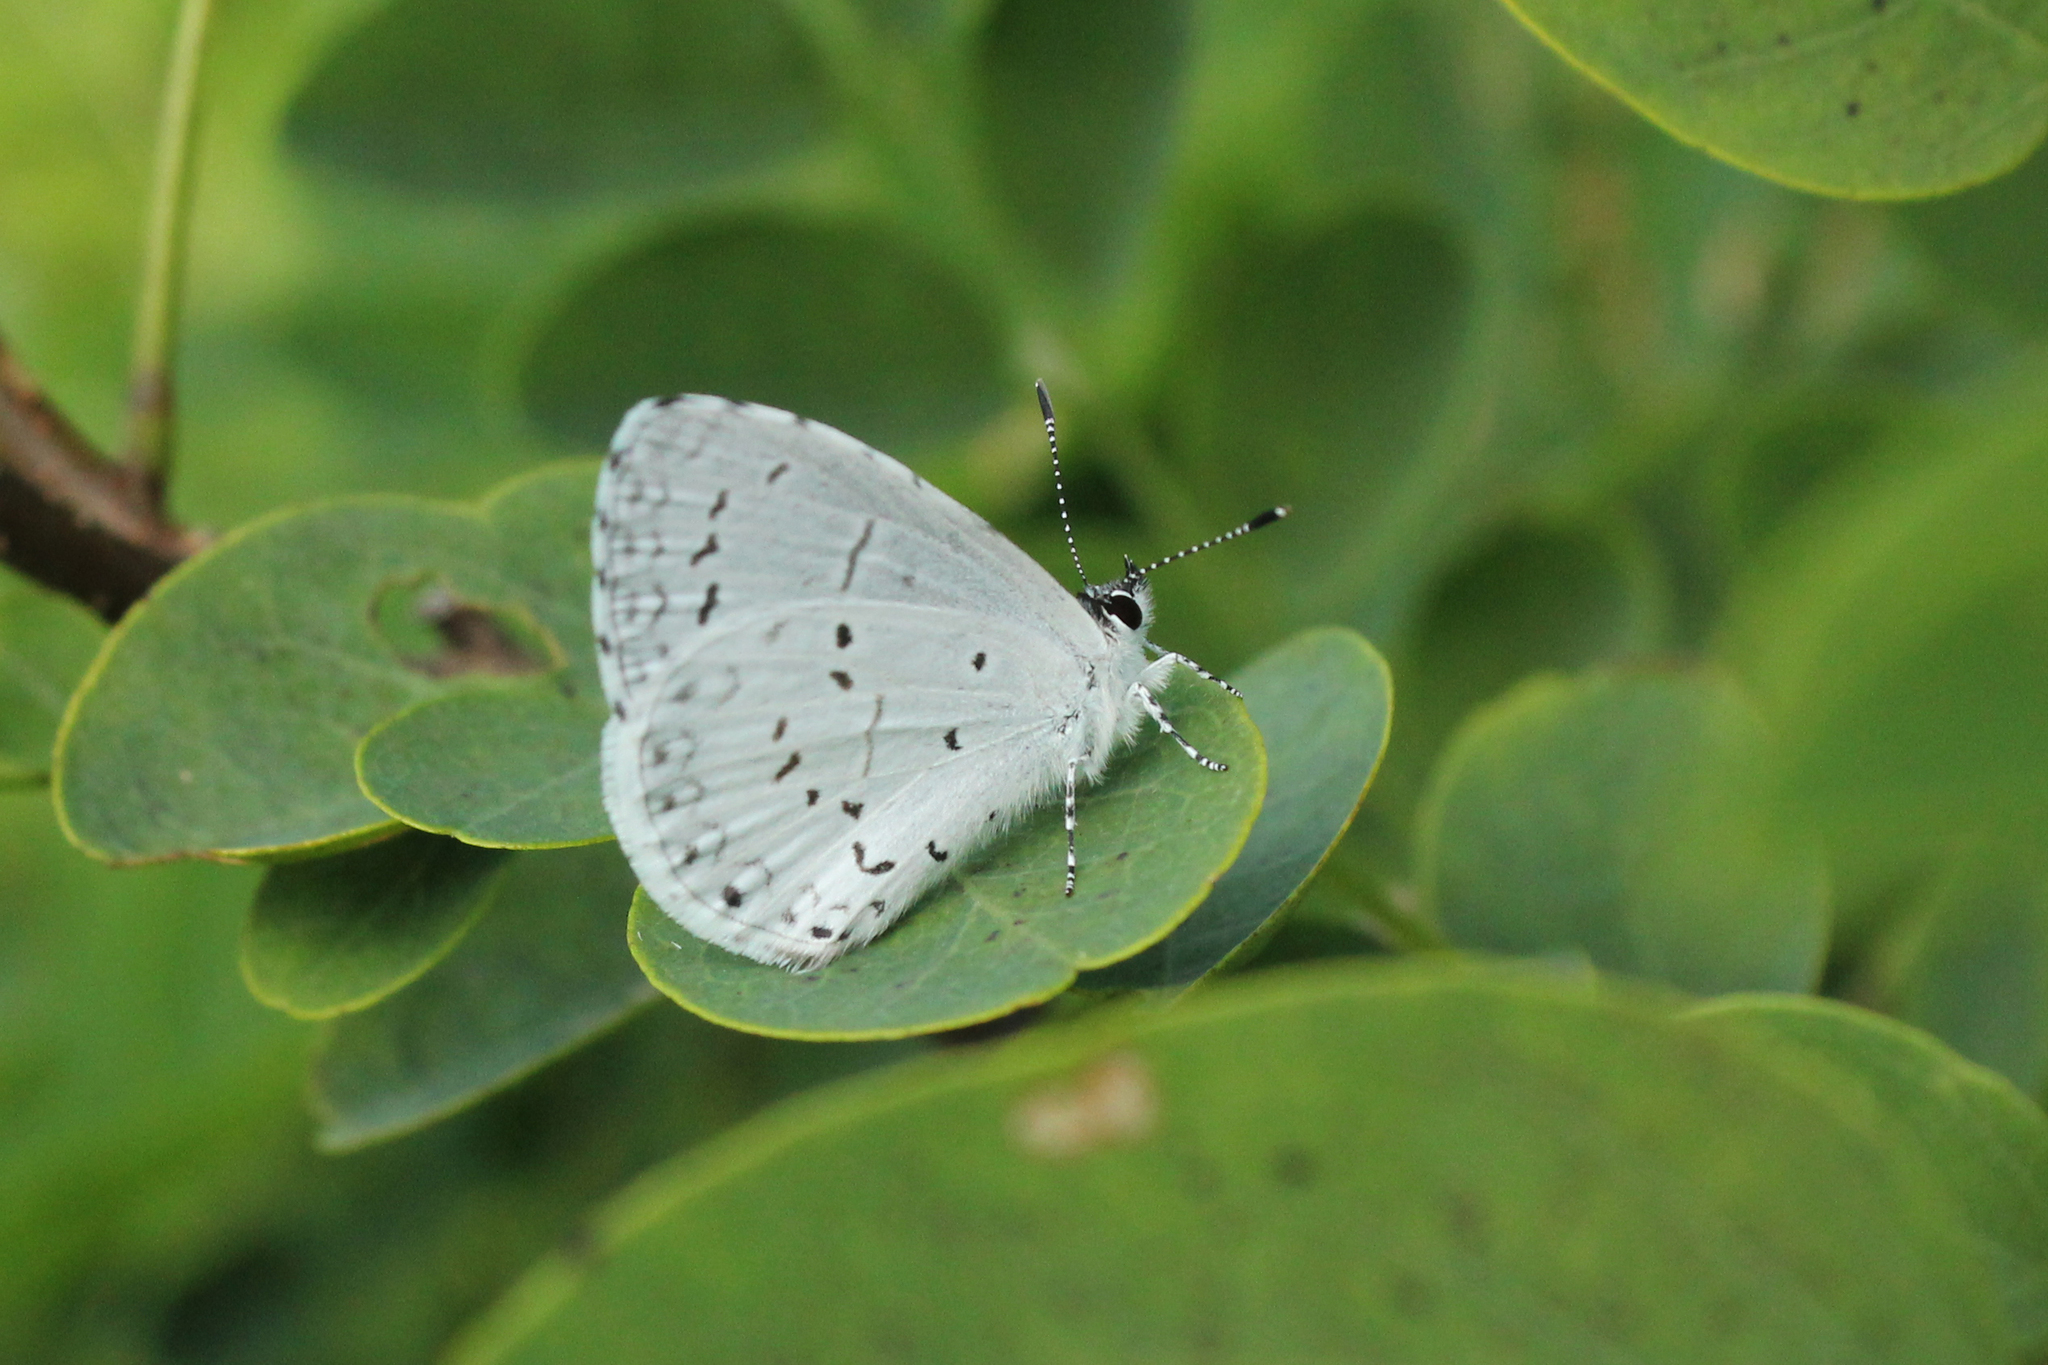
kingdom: Animalia
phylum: Arthropoda
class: Insecta
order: Lepidoptera
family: Lycaenidae
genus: Cyaniris
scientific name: Cyaniris neglecta
